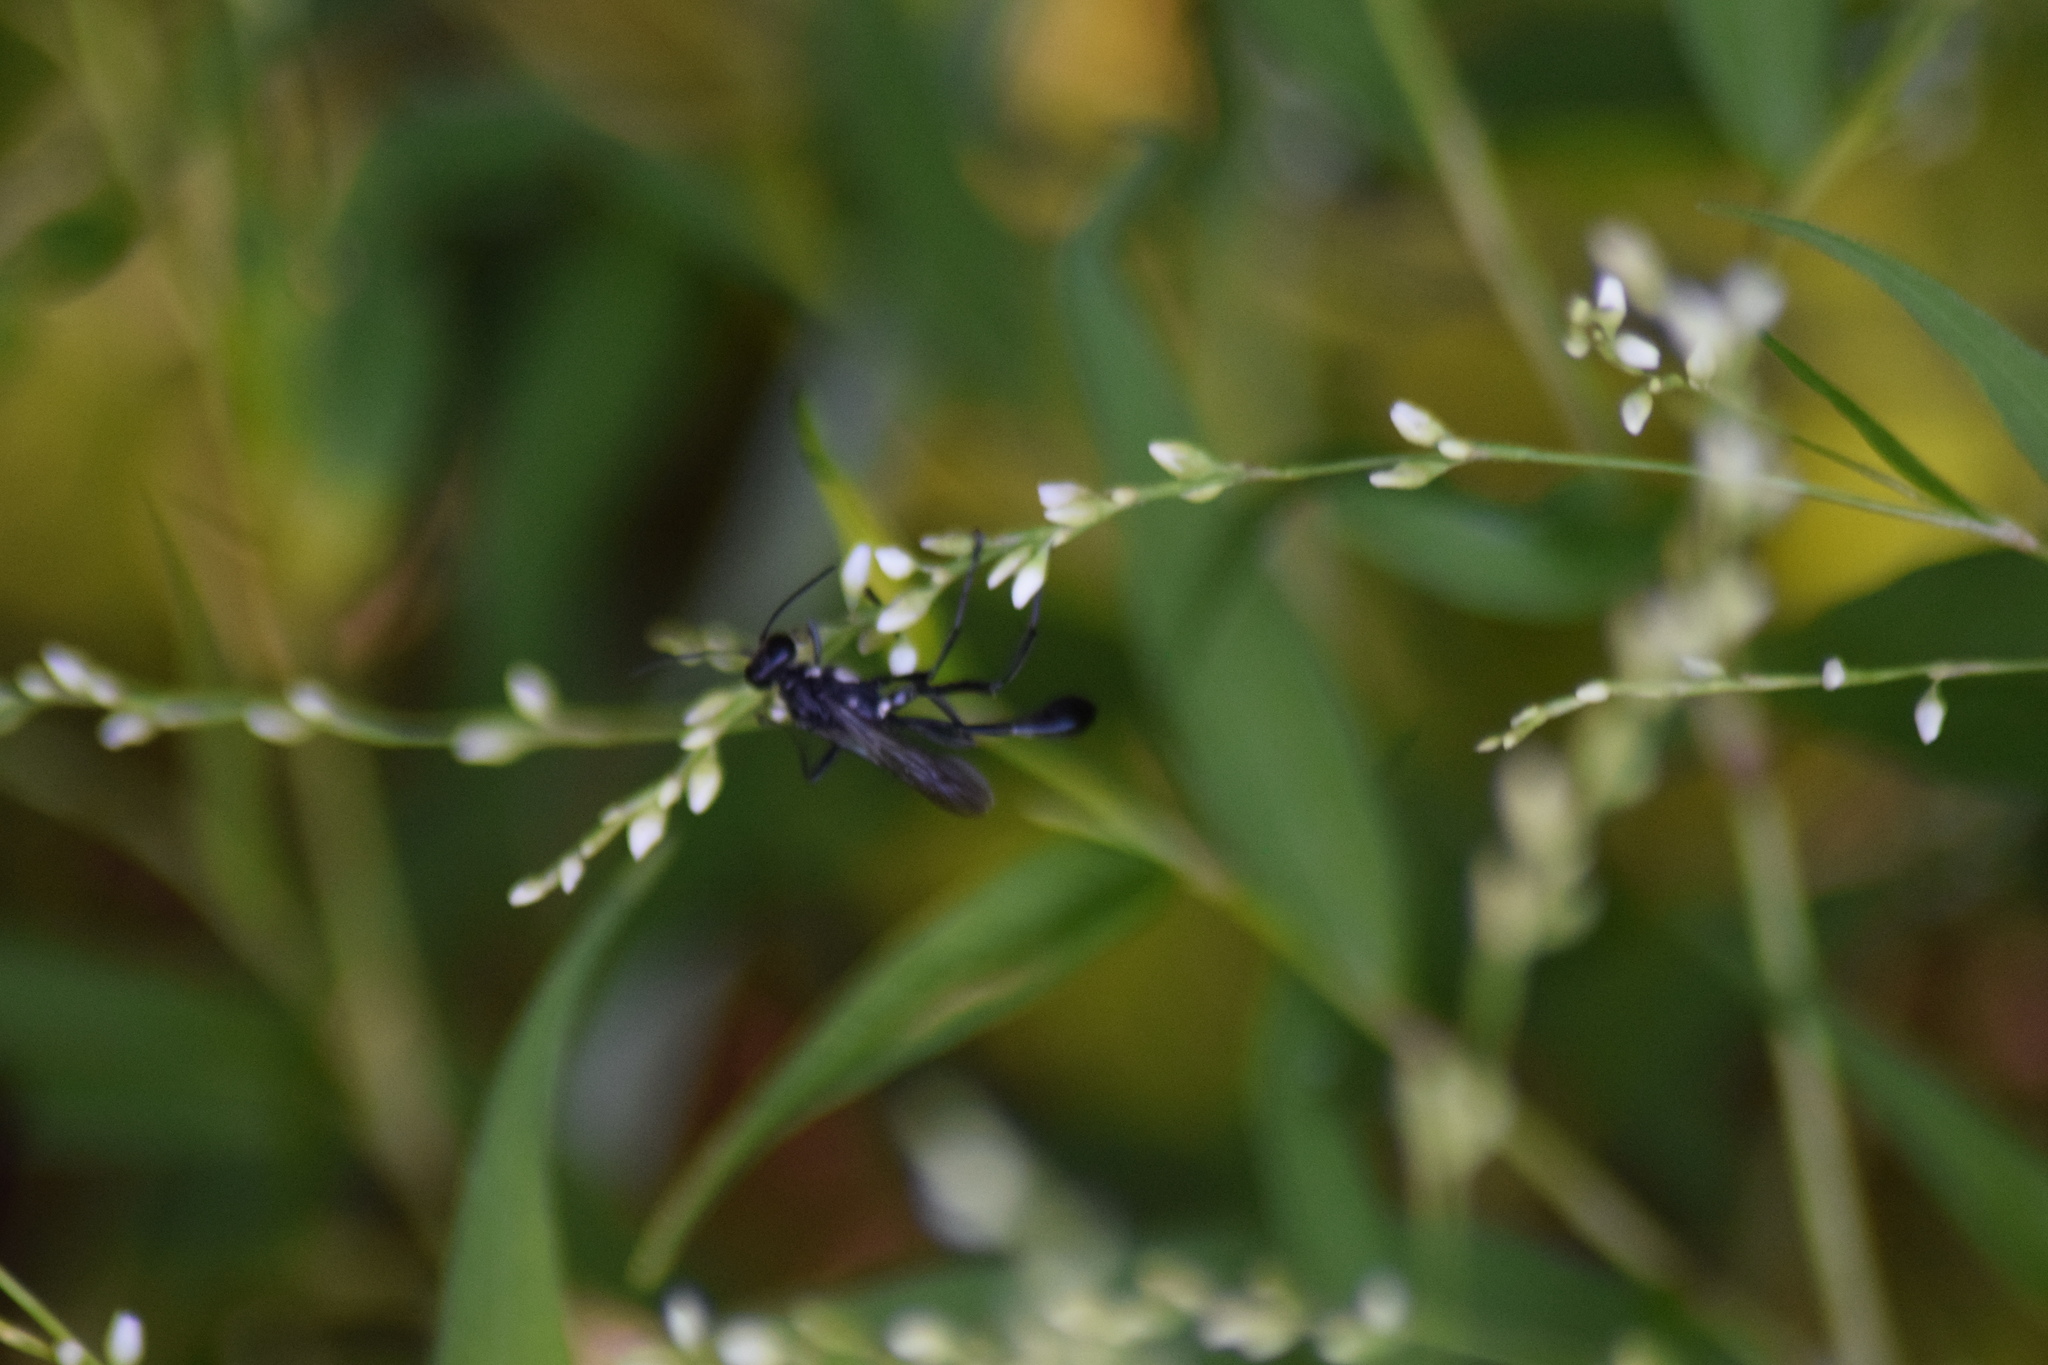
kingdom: Animalia
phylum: Arthropoda
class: Insecta
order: Hymenoptera
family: Sphecidae
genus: Eremnophila
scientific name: Eremnophila aureonotata
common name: Gold-marked thread-waisted wasp
